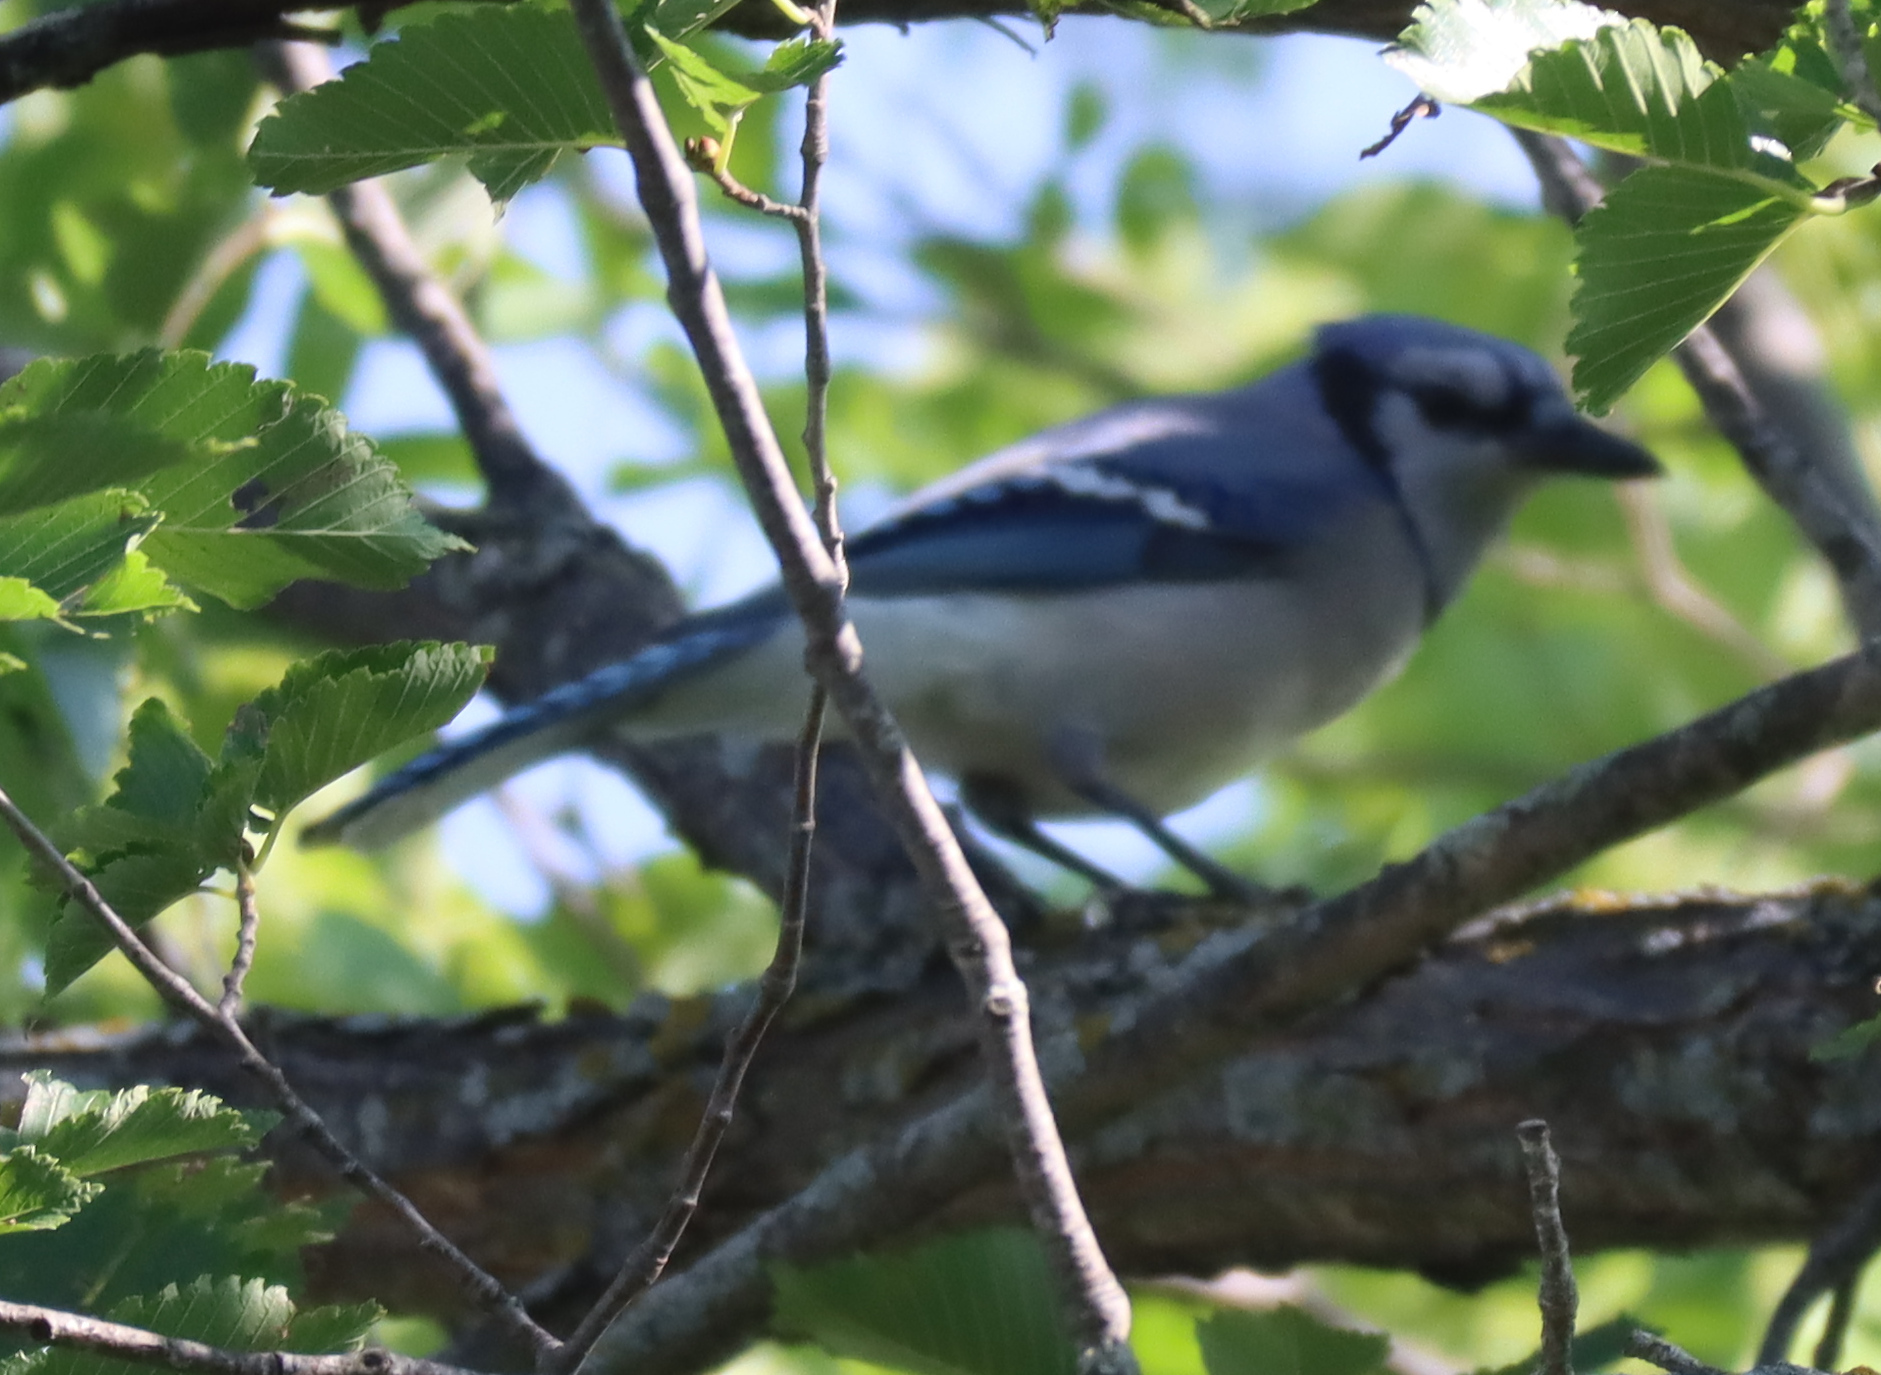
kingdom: Animalia
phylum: Chordata
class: Aves
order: Passeriformes
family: Corvidae
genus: Cyanocitta
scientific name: Cyanocitta cristata
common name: Blue jay
